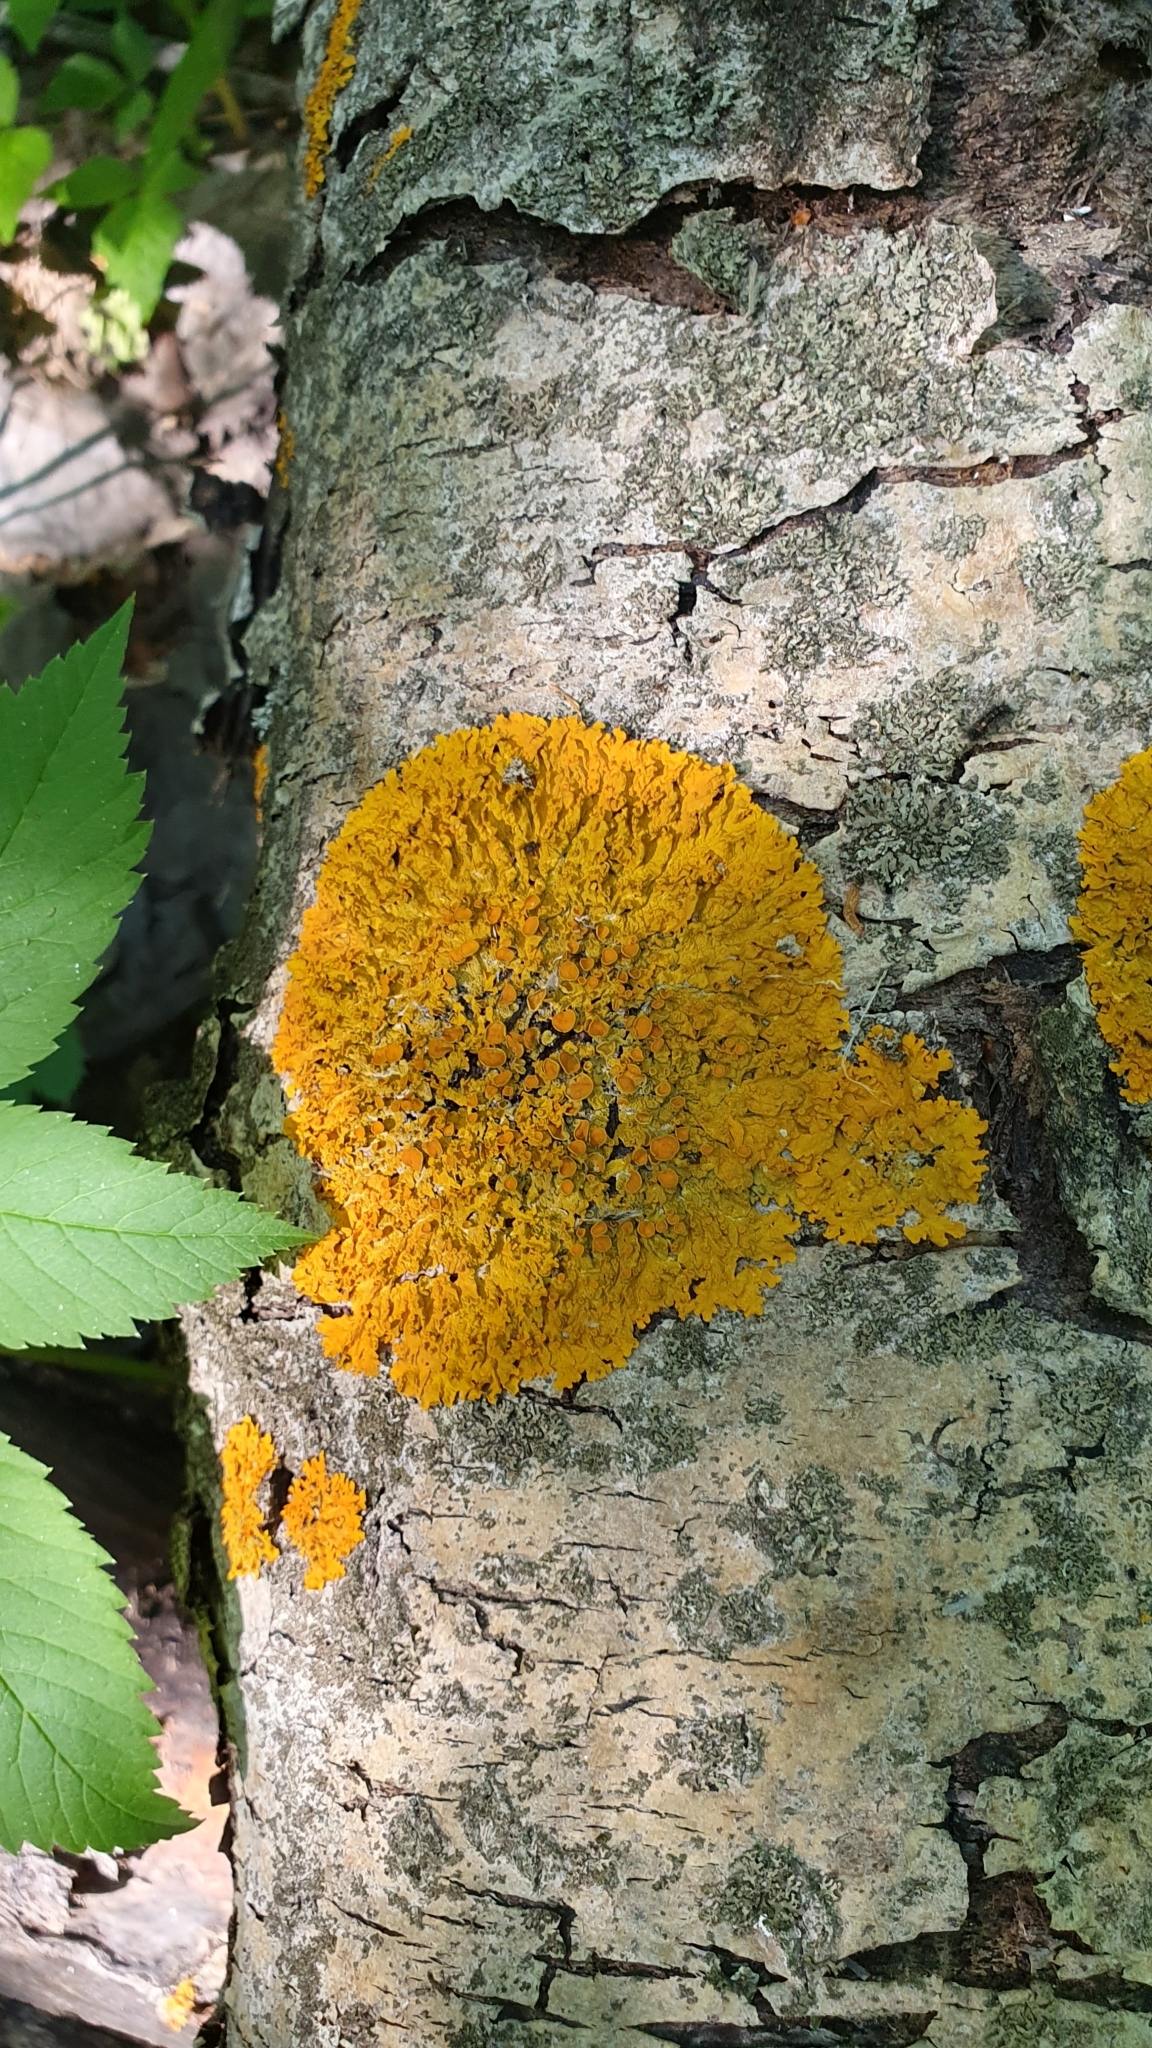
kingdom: Fungi
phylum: Ascomycota
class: Lecanoromycetes
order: Teloschistales
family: Teloschistaceae
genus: Xanthoria
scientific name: Xanthoria parietina
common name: Common orange lichen
